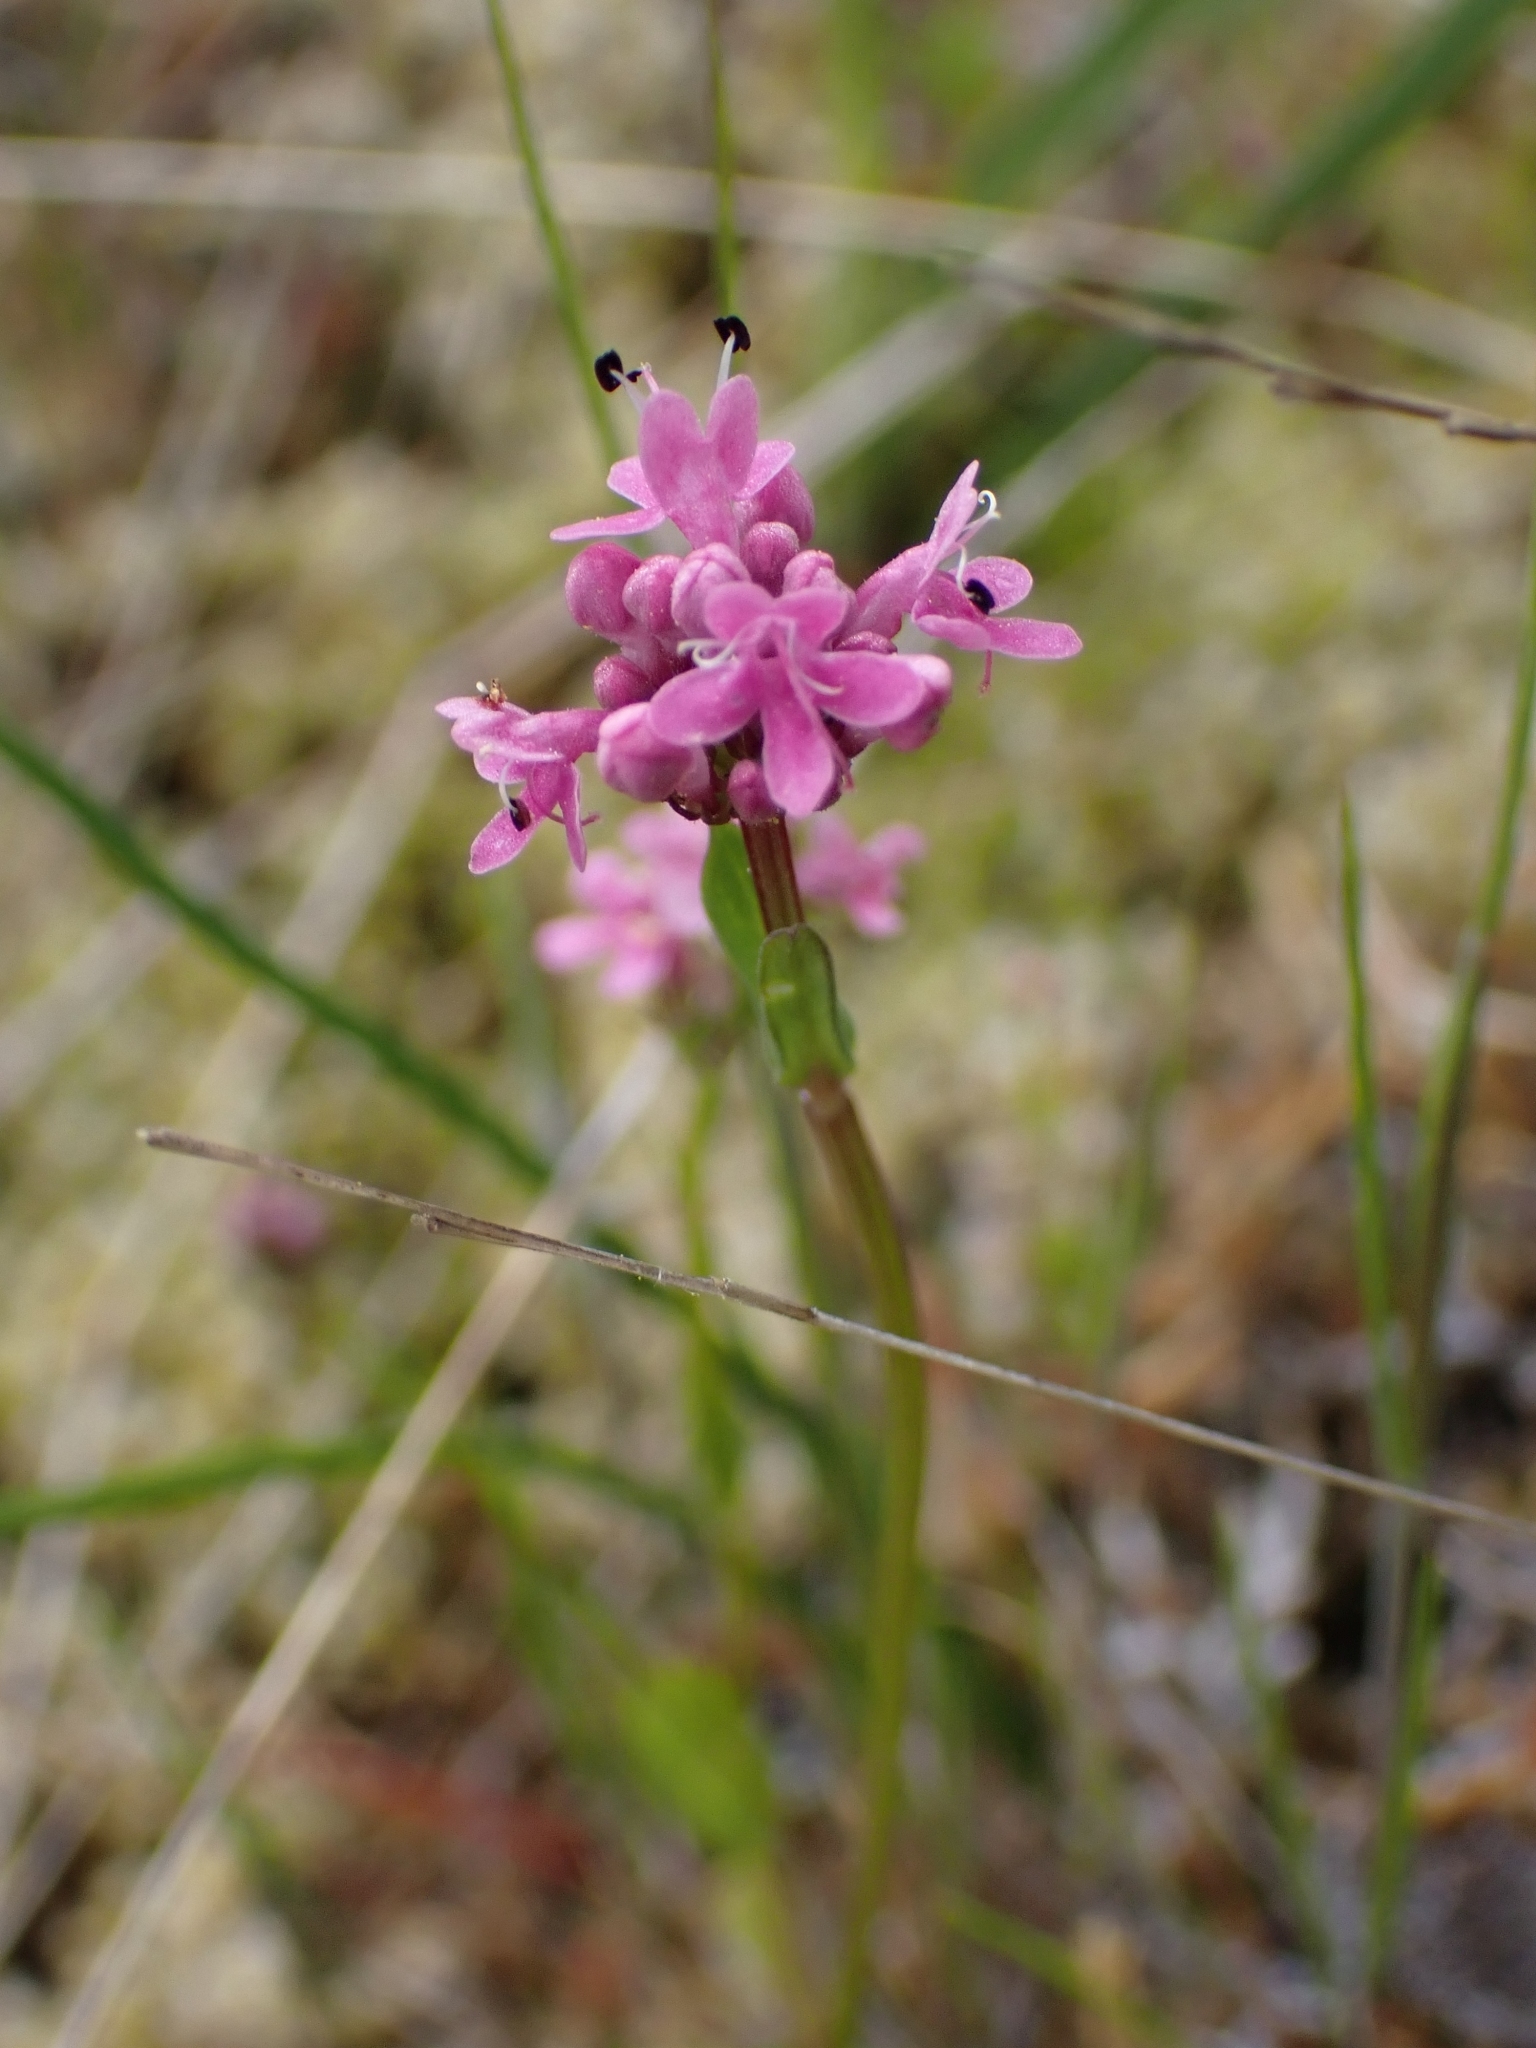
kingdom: Plantae
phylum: Tracheophyta
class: Magnoliopsida
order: Dipsacales
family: Caprifoliaceae
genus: Plectritis
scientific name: Plectritis congesta
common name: Pink plectritis
